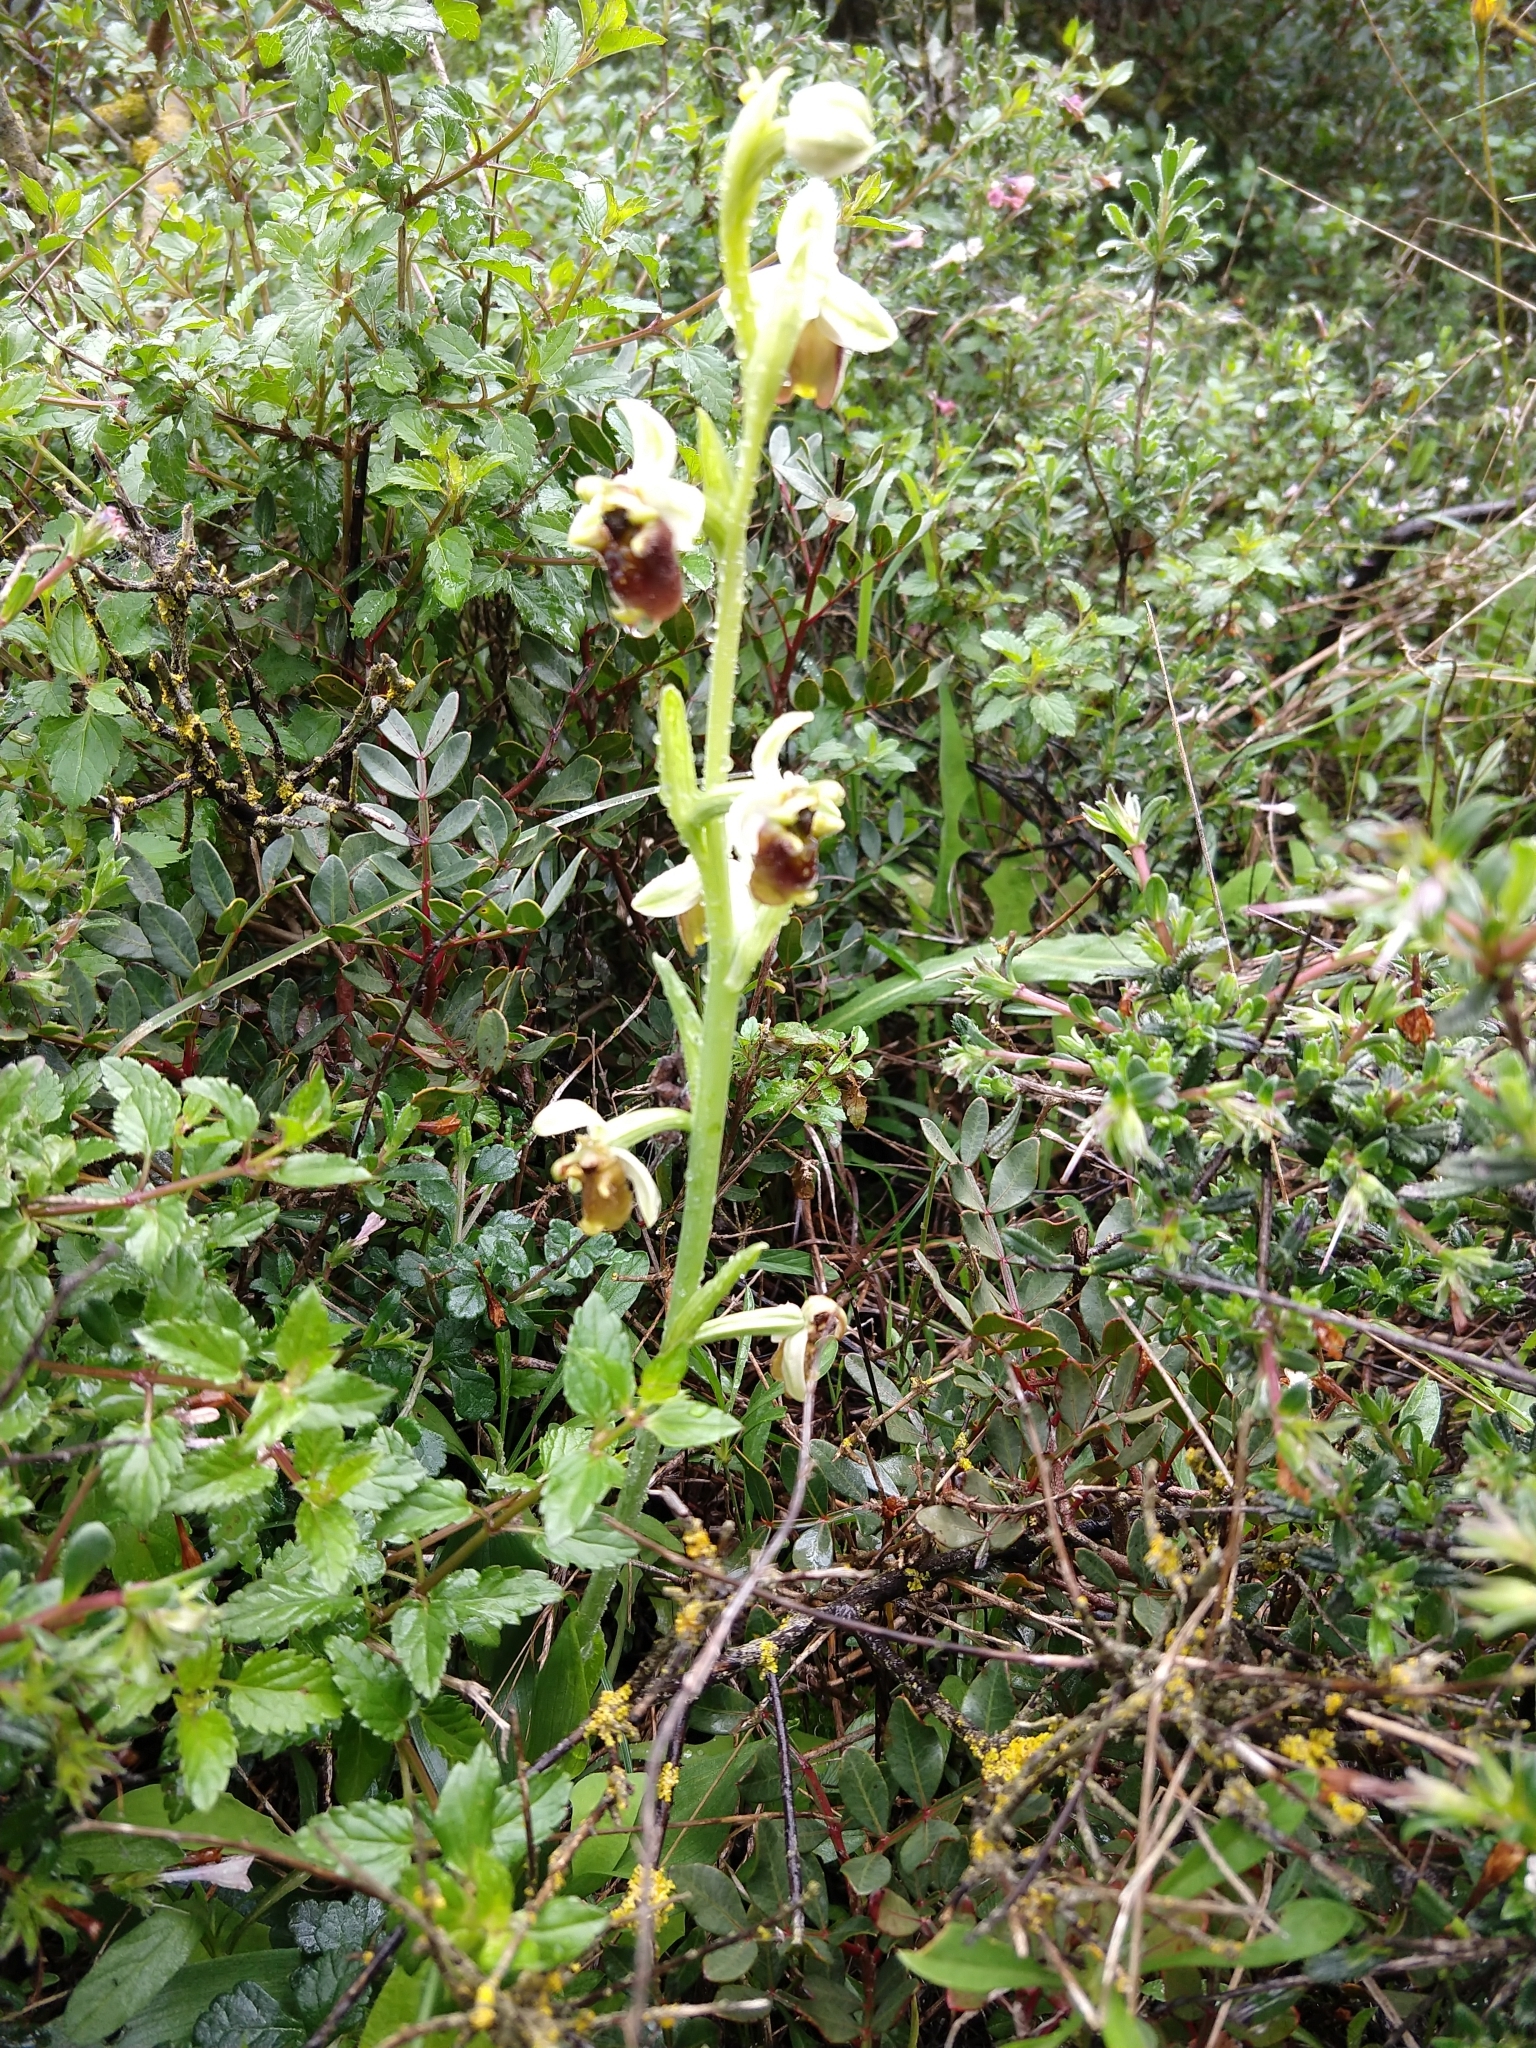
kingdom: Plantae
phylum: Tracheophyta
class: Liliopsida
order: Asparagales
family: Orchidaceae
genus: Ophrys
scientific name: Ophrys bornmuelleri
